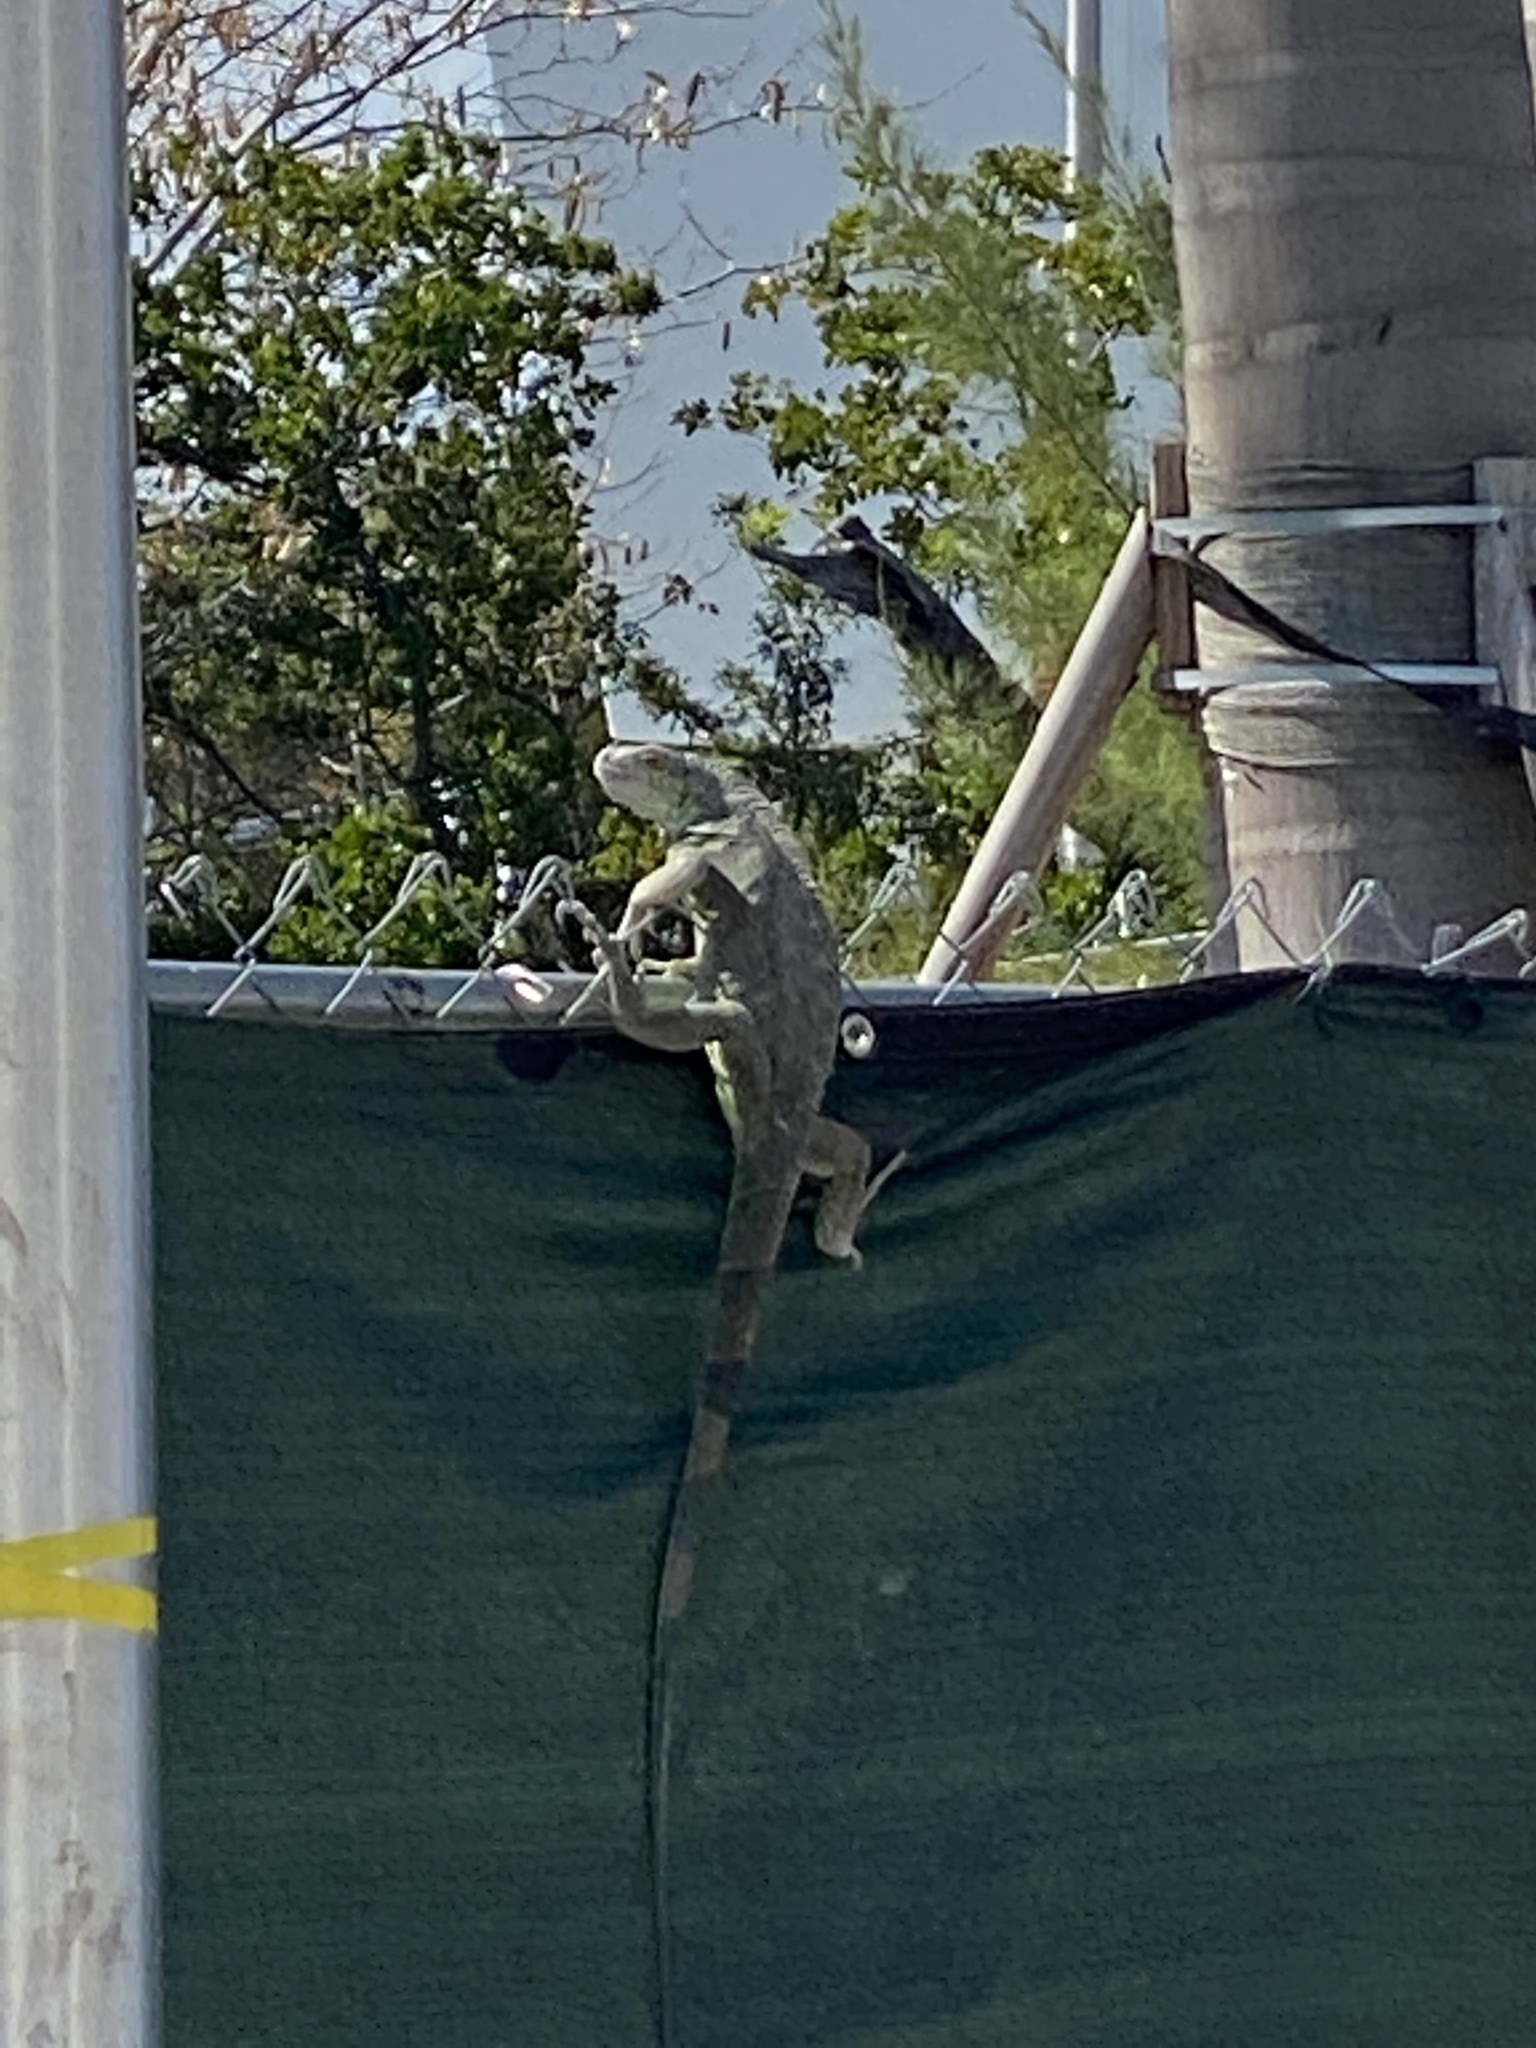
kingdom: Animalia
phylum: Chordata
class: Squamata
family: Iguanidae
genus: Iguana
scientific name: Iguana iguana
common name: Green iguana
